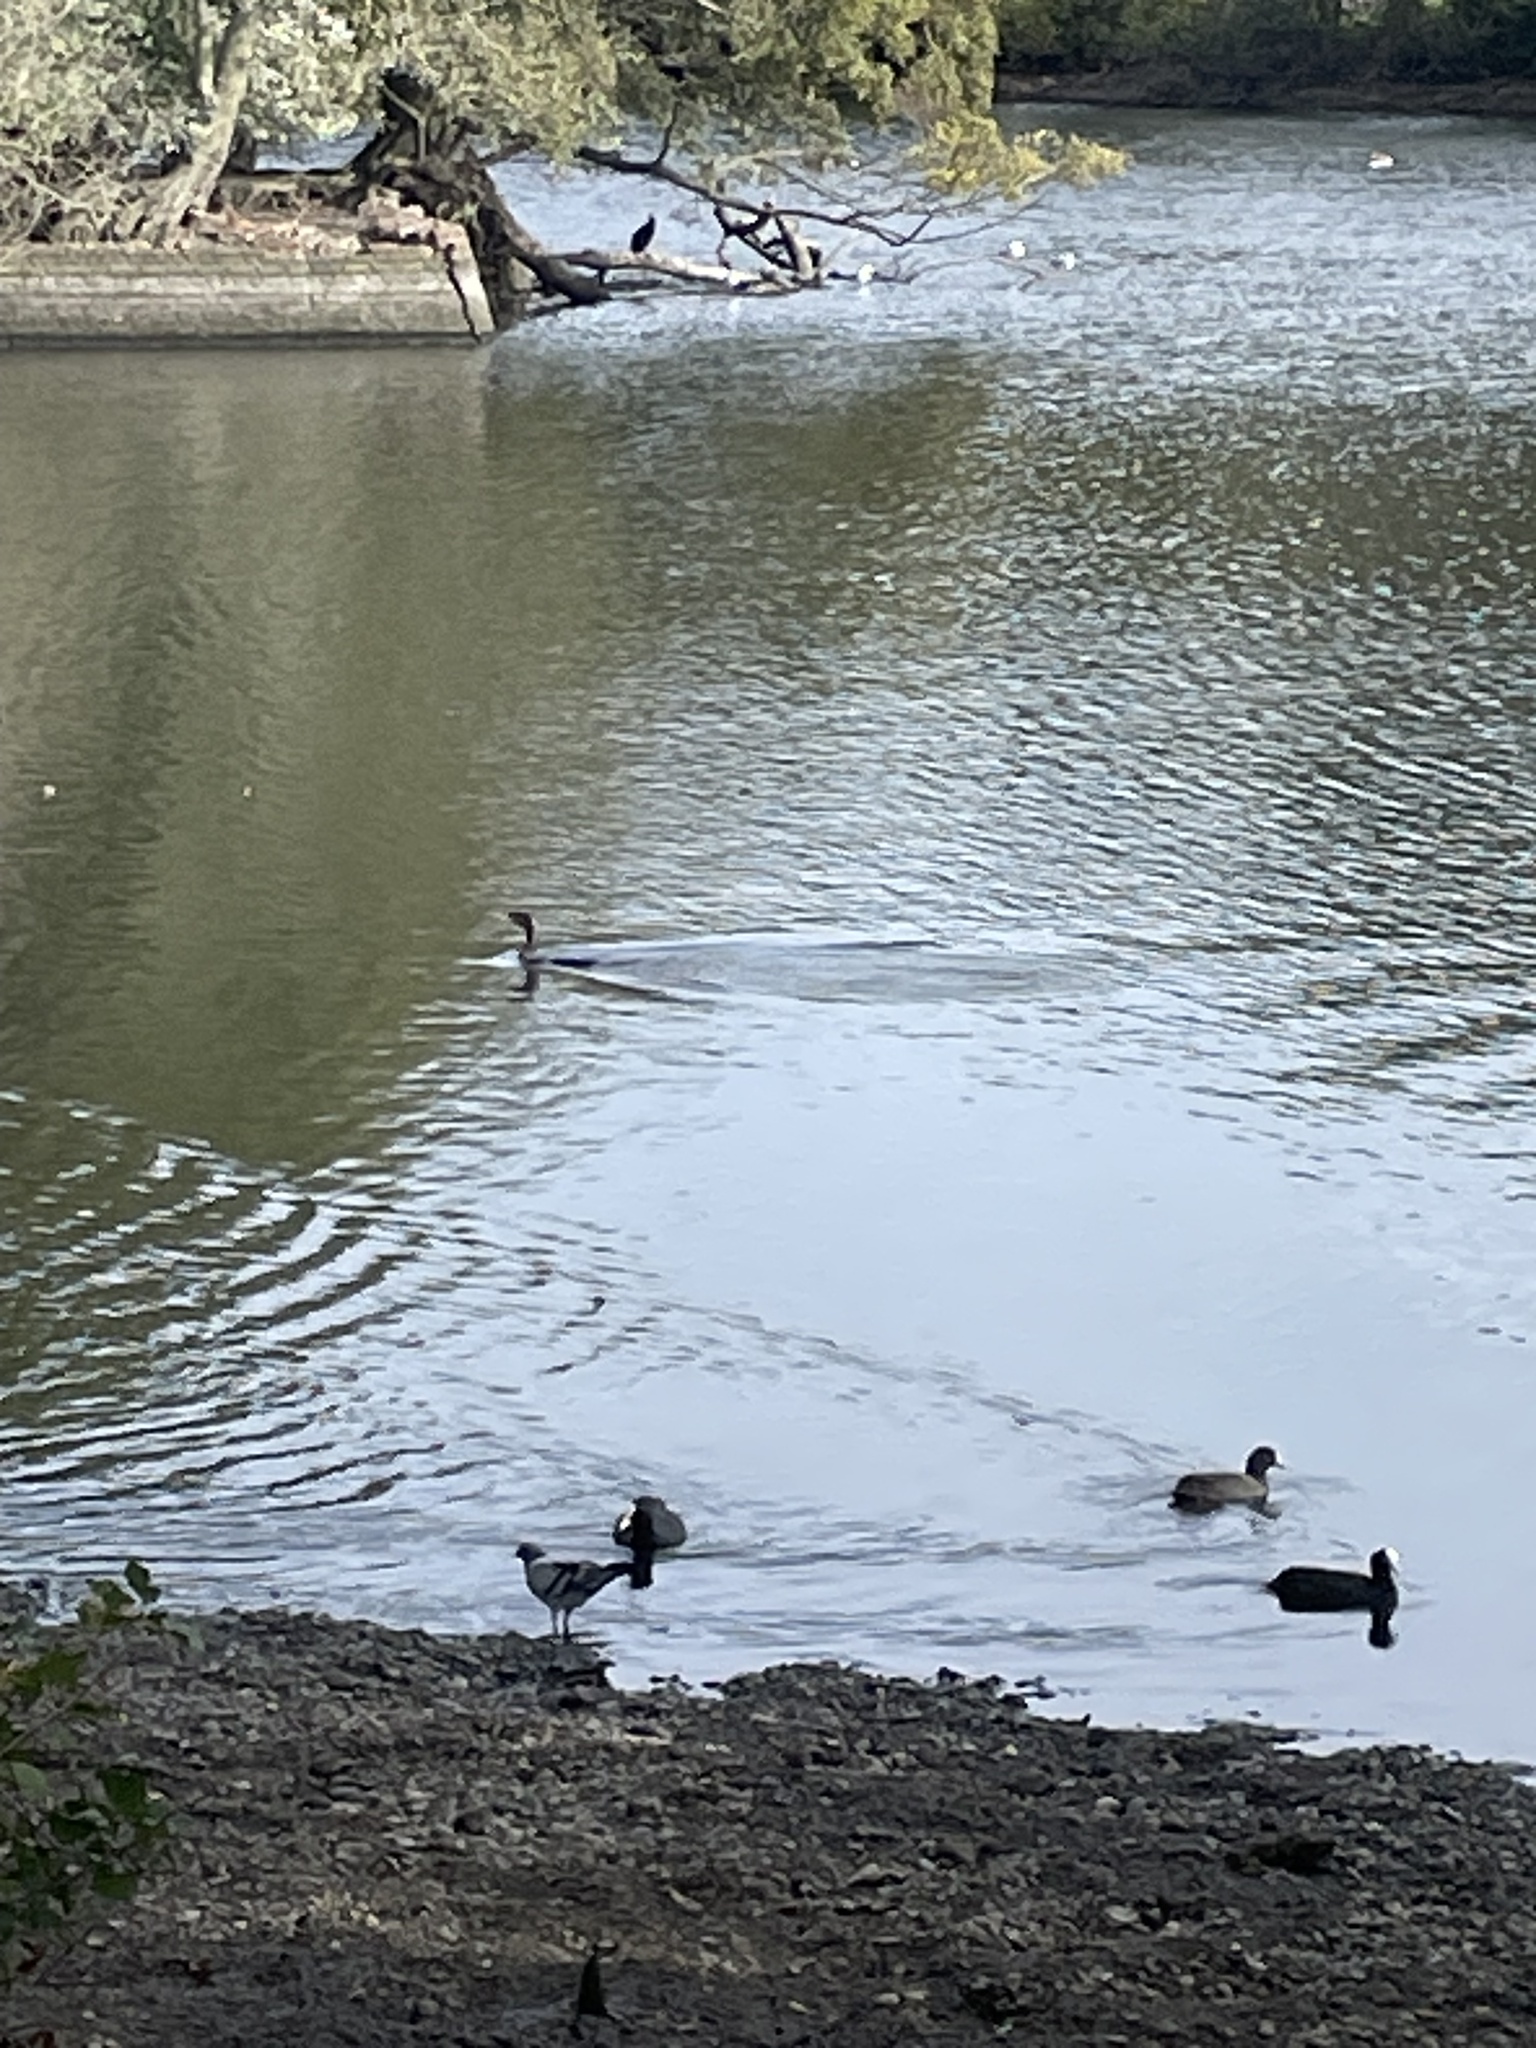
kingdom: Animalia
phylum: Chordata
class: Aves
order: Suliformes
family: Phalacrocoracidae
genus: Phalacrocorax
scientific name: Phalacrocorax carbo
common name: Great cormorant
